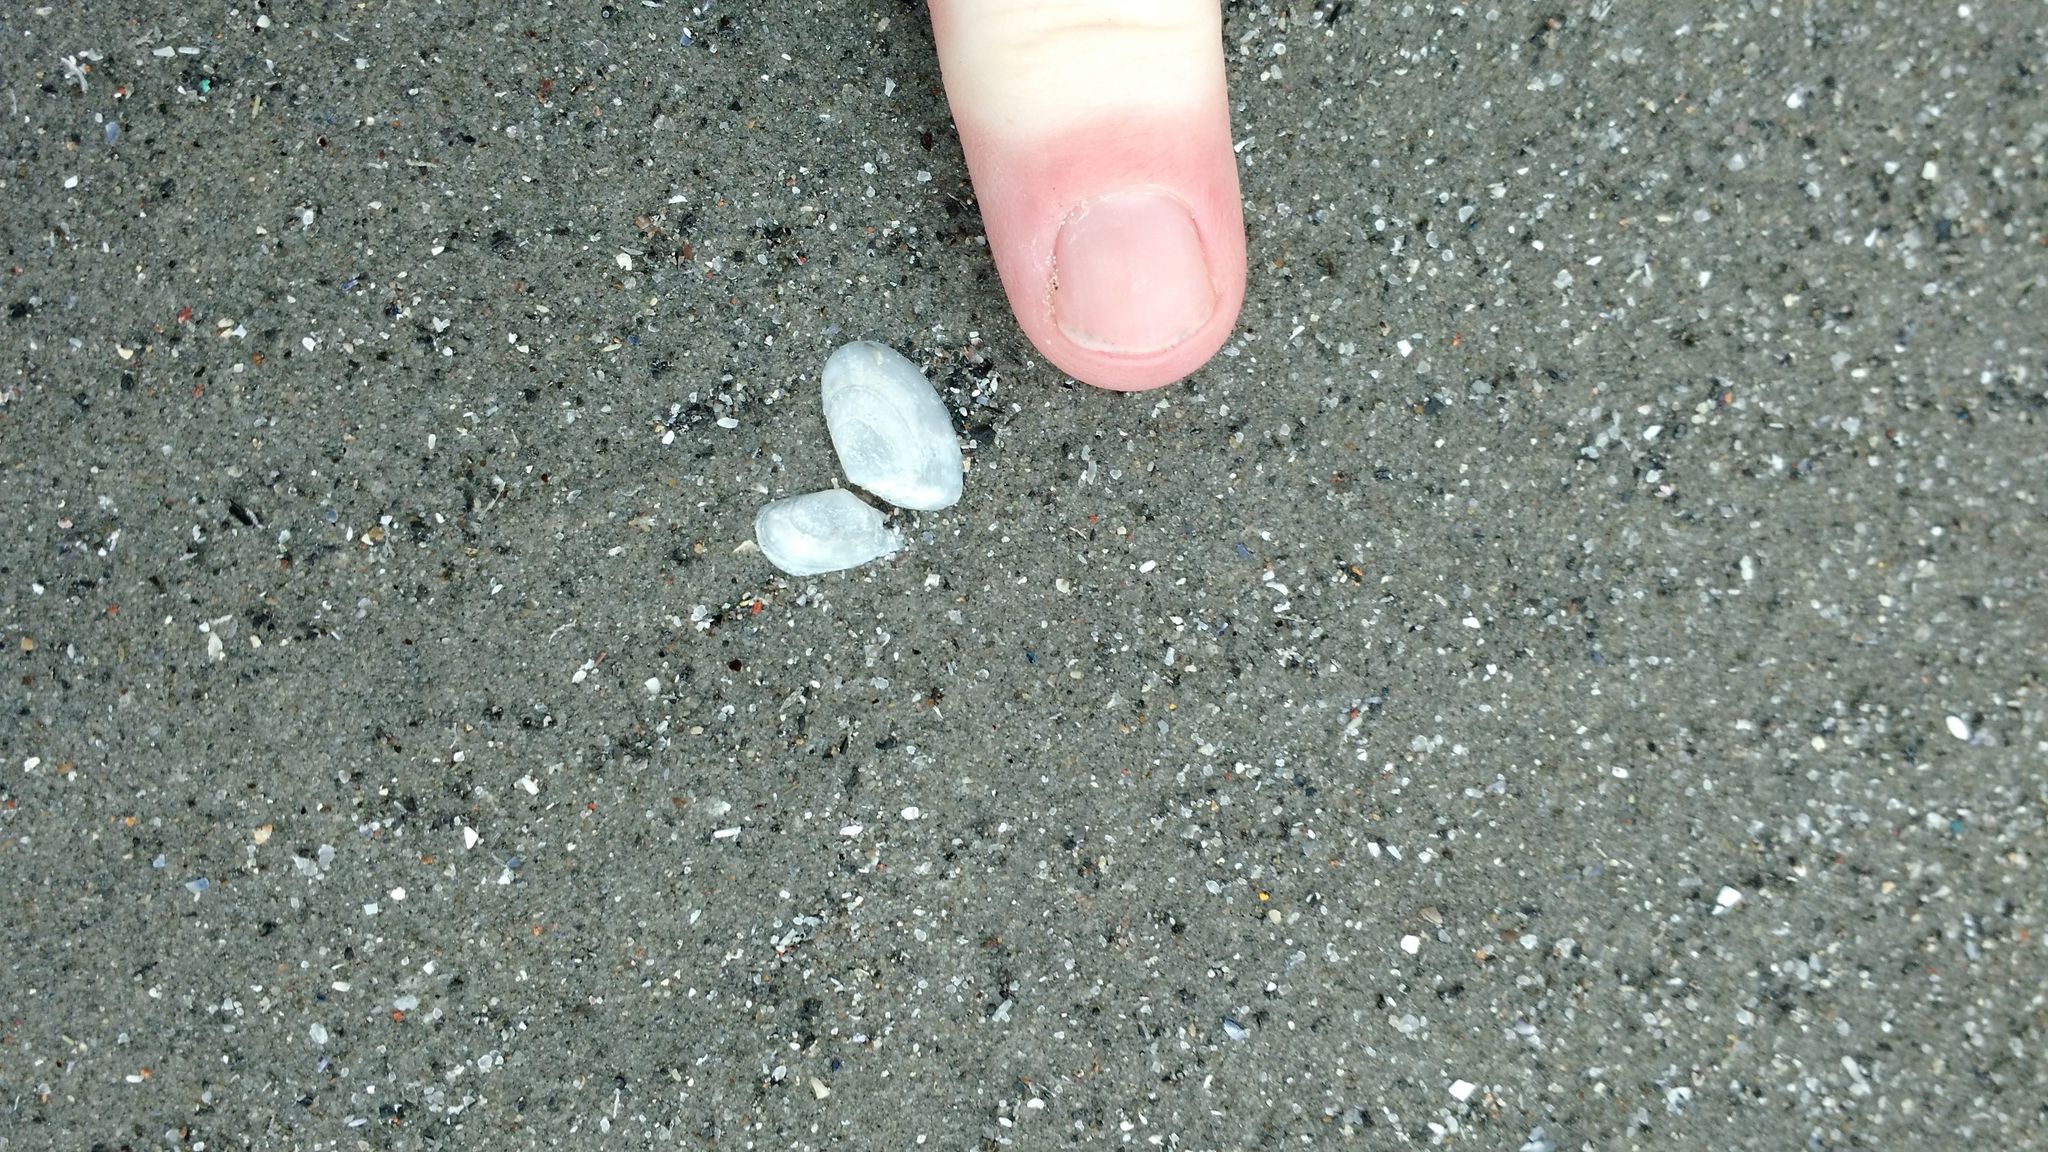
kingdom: Animalia
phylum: Mollusca
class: Bivalvia
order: Cardiida
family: Tellinidae
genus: Ameritella
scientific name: Ameritella agilis
